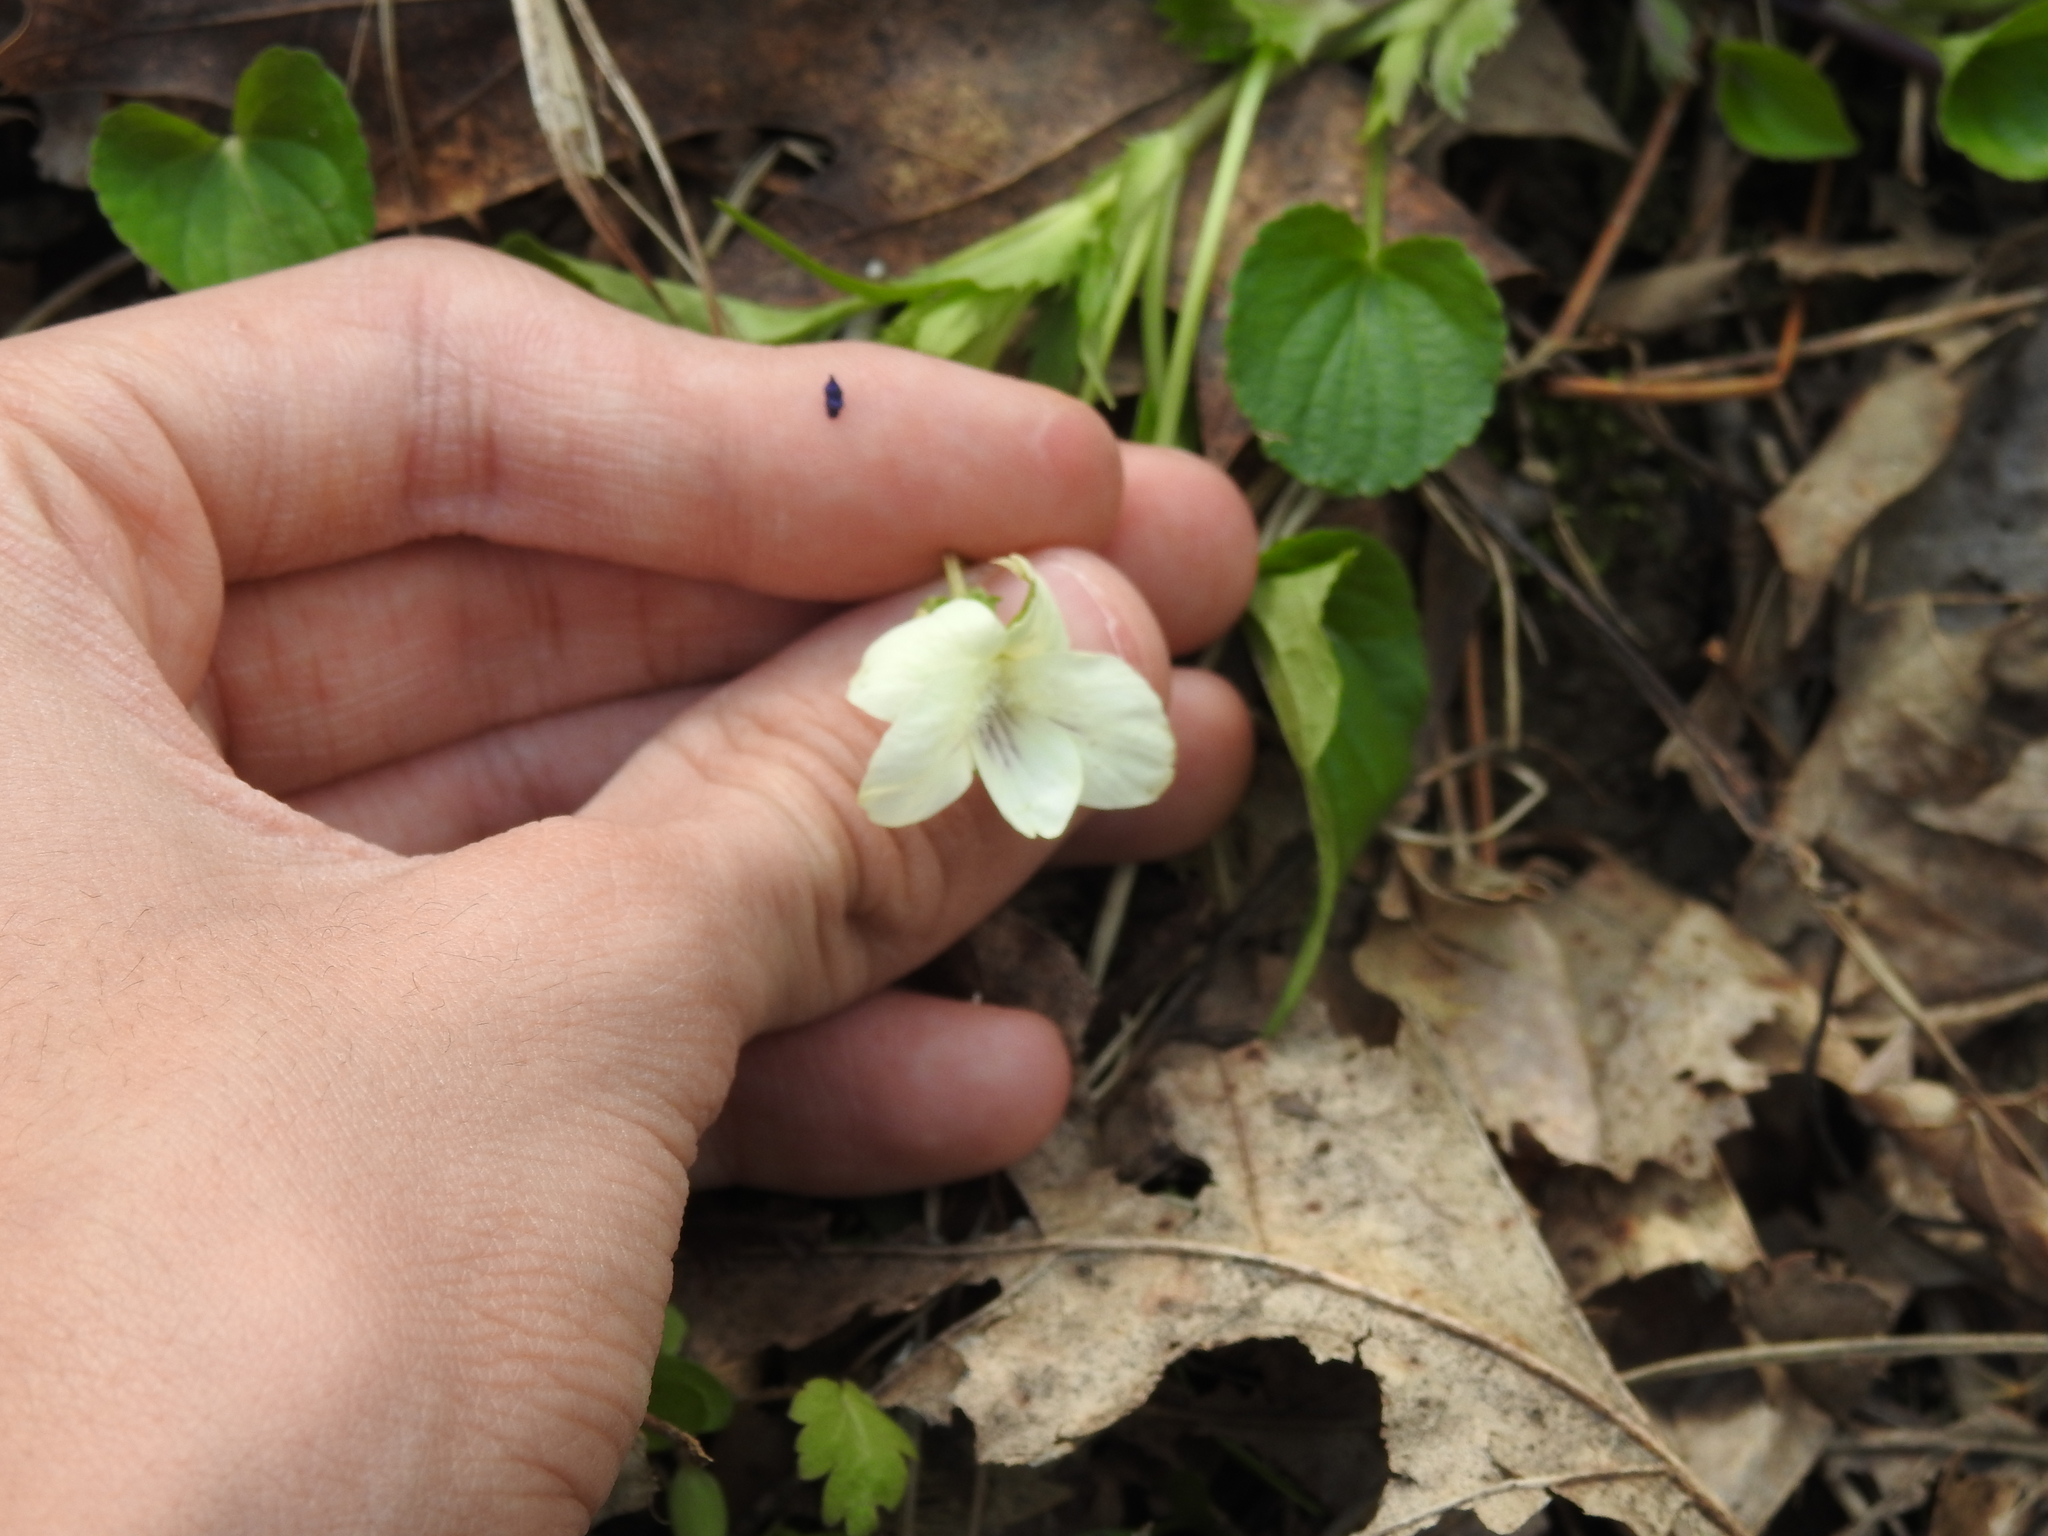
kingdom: Plantae
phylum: Tracheophyta
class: Magnoliopsida
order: Malpighiales
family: Violaceae
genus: Viola
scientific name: Viola striata
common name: Cream violet
